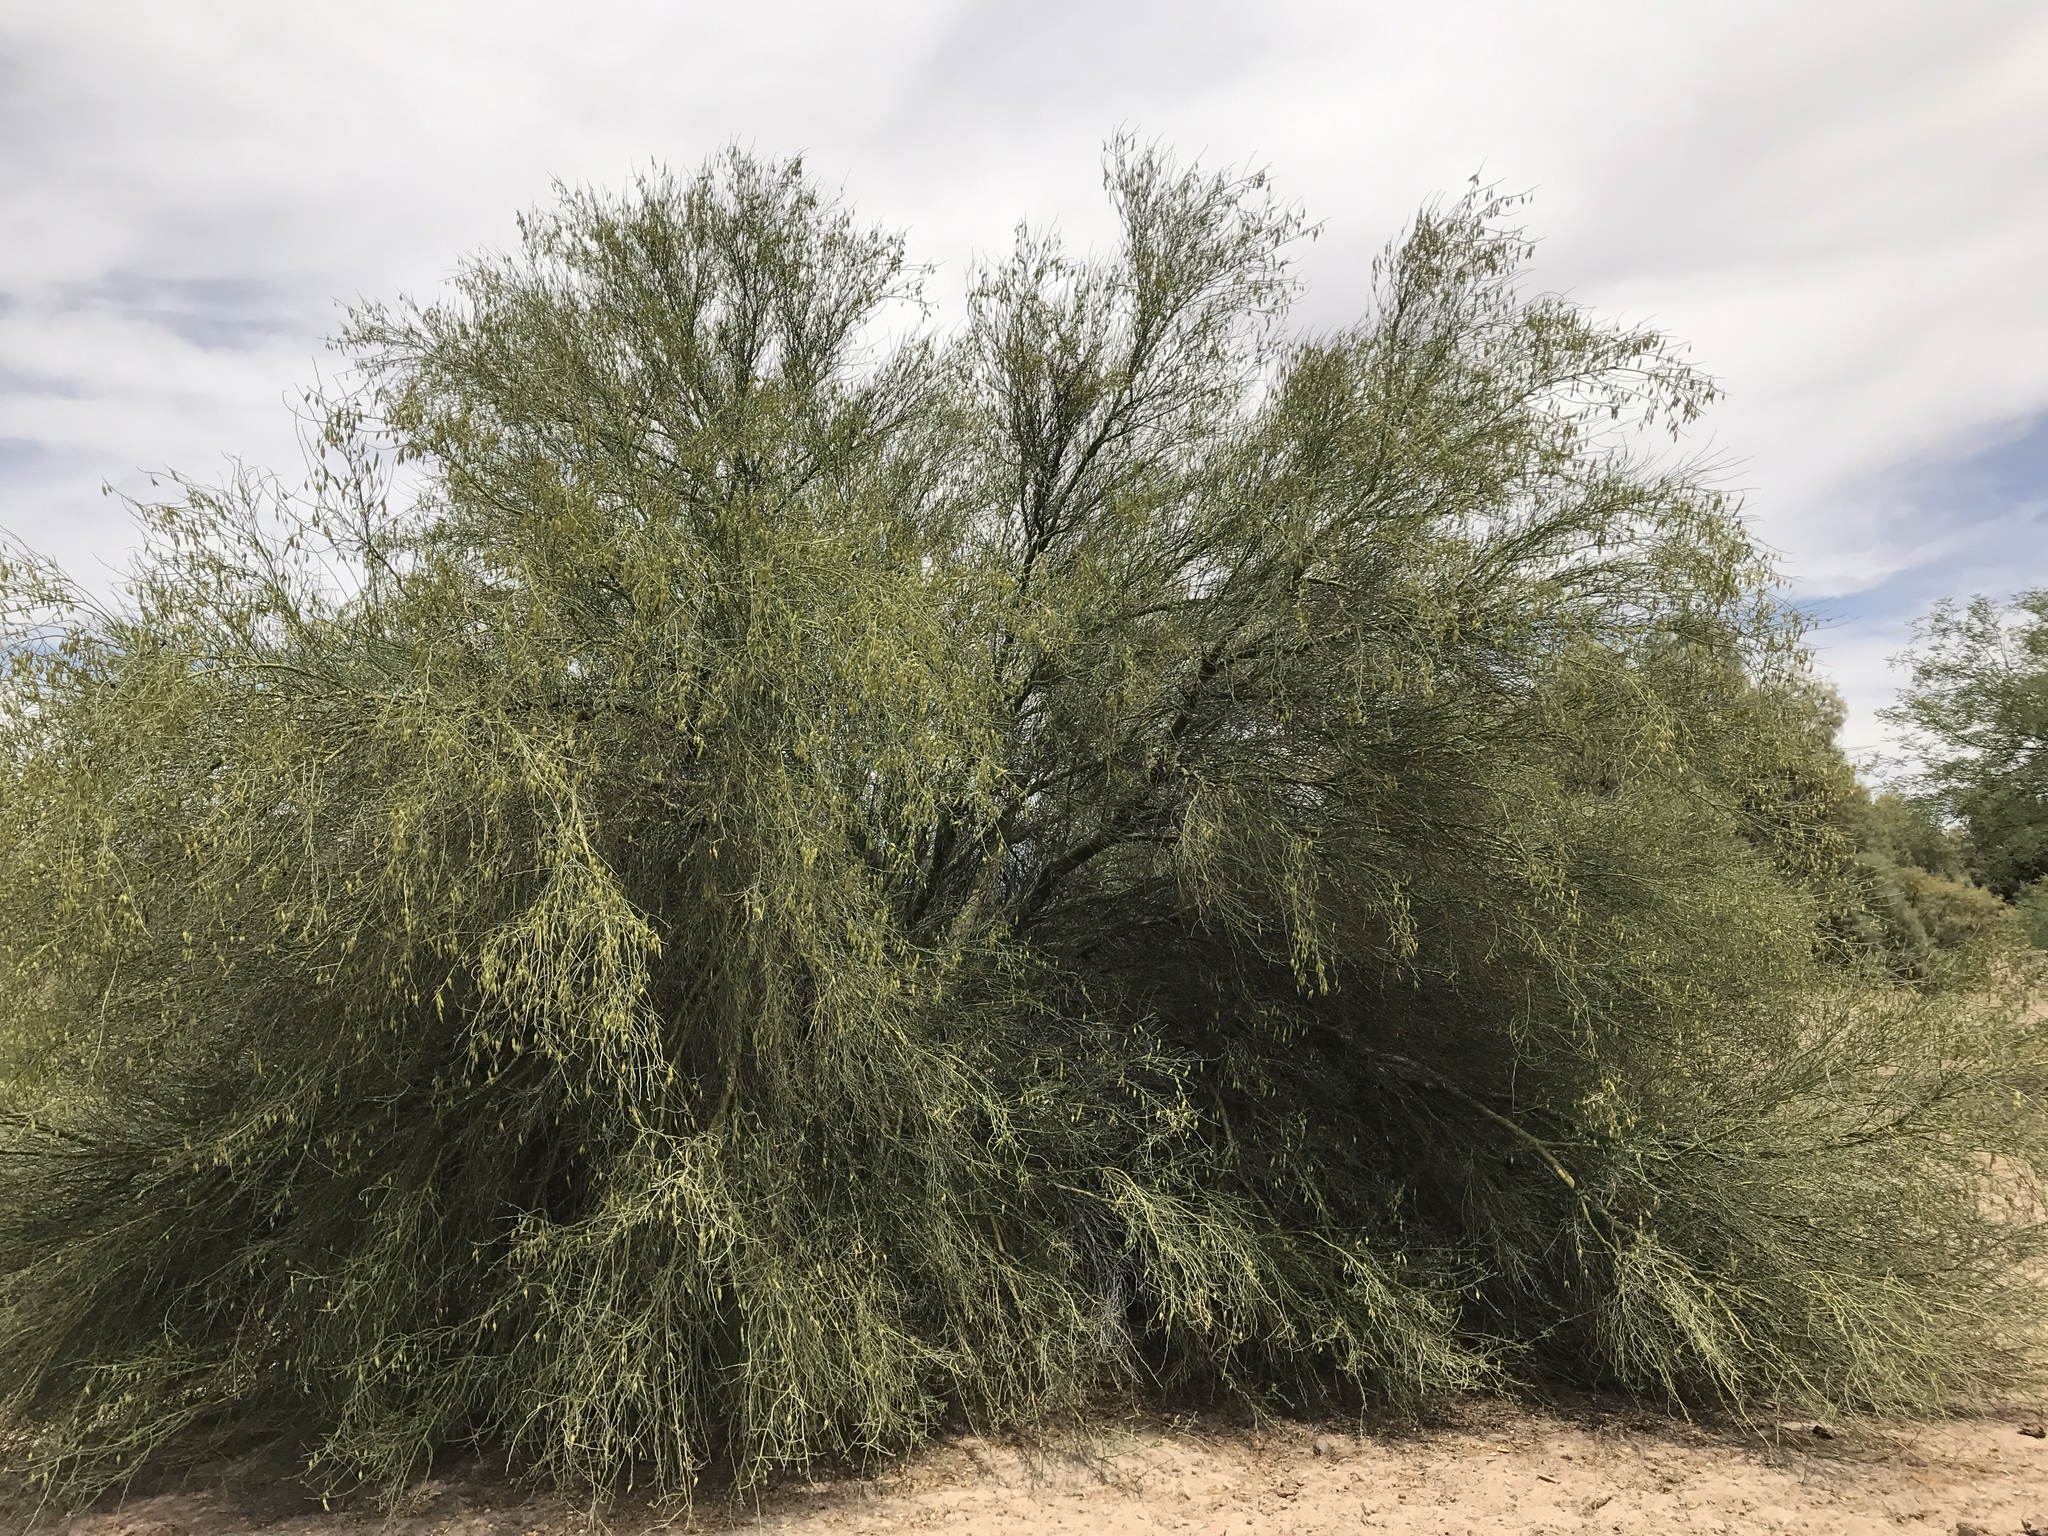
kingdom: Plantae
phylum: Tracheophyta
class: Magnoliopsida
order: Fabales
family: Fabaceae
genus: Parkinsonia
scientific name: Parkinsonia florida
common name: Blue paloverde
